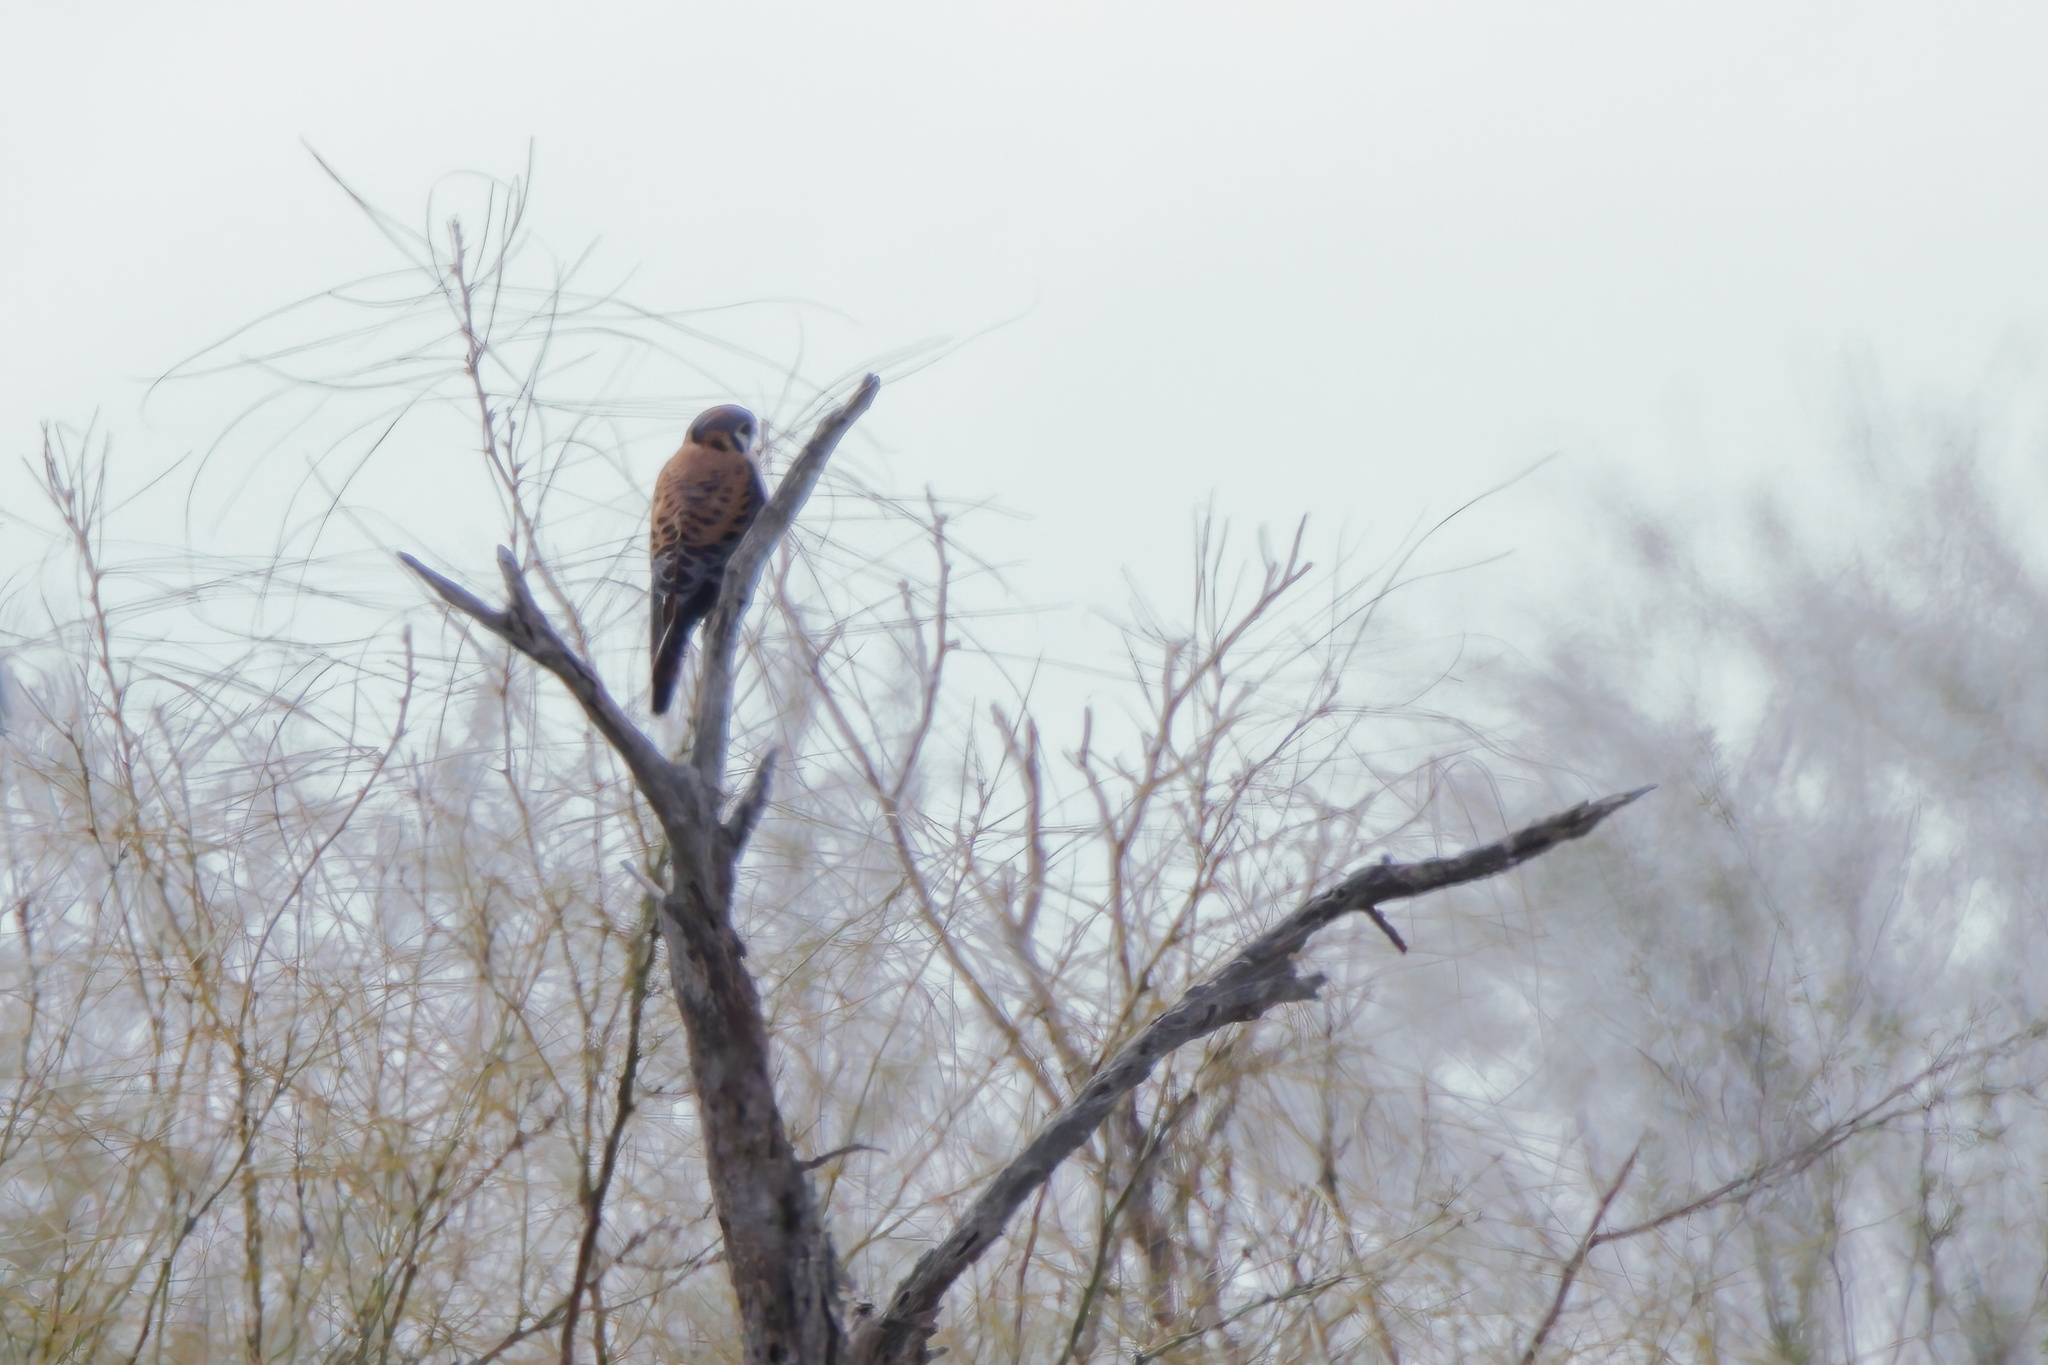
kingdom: Animalia
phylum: Chordata
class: Aves
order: Falconiformes
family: Falconidae
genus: Falco
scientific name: Falco sparverius
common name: American kestrel
